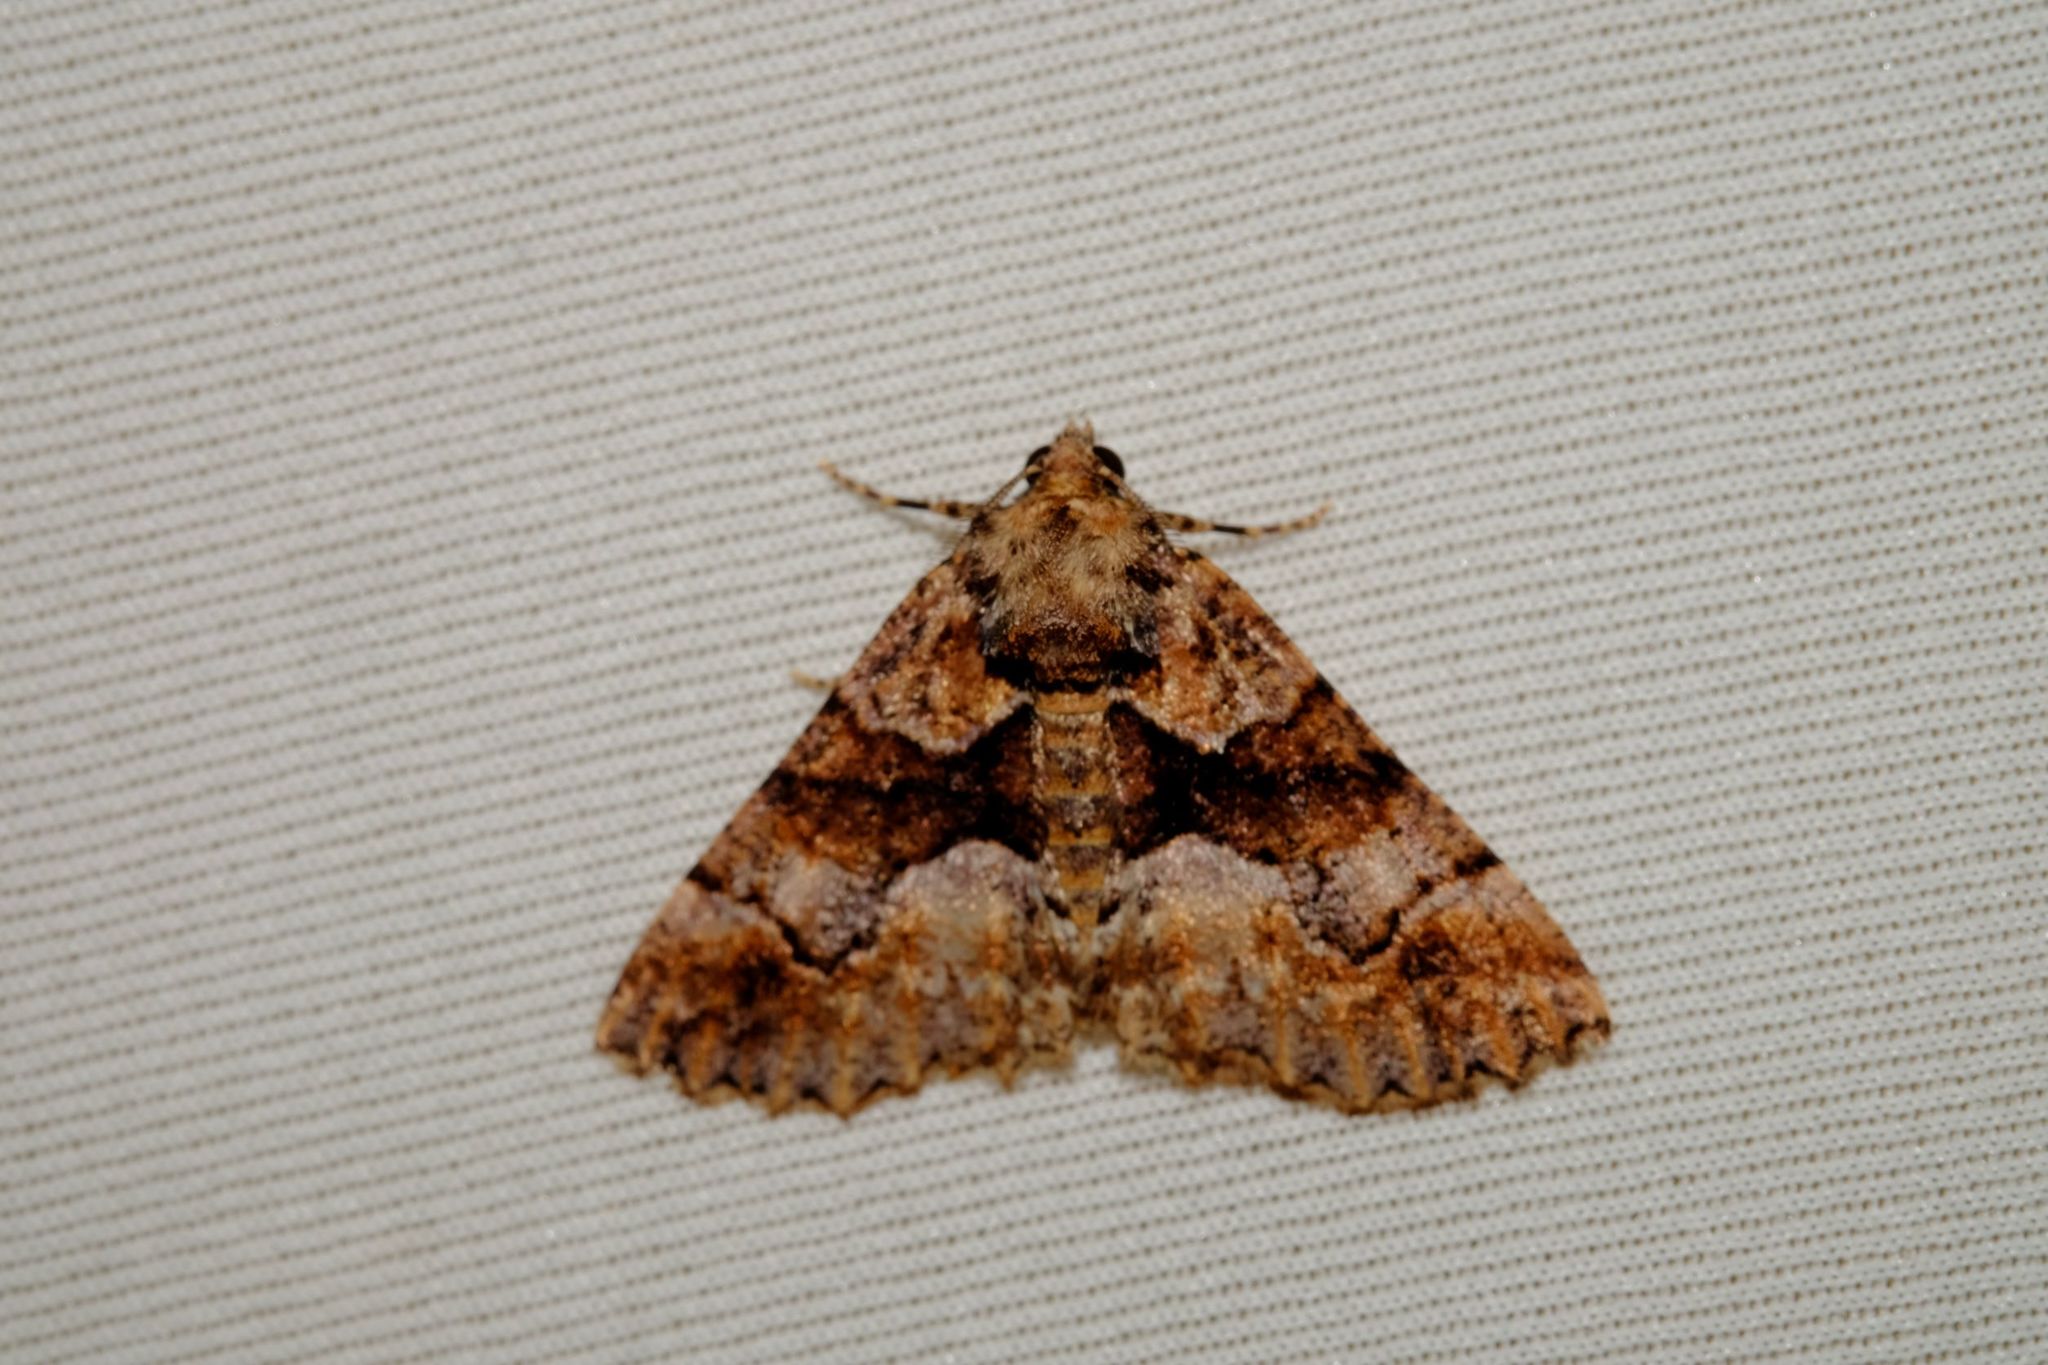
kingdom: Animalia
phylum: Arthropoda
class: Insecta
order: Lepidoptera
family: Geometridae
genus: Gastrina
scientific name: Gastrina cristaria
